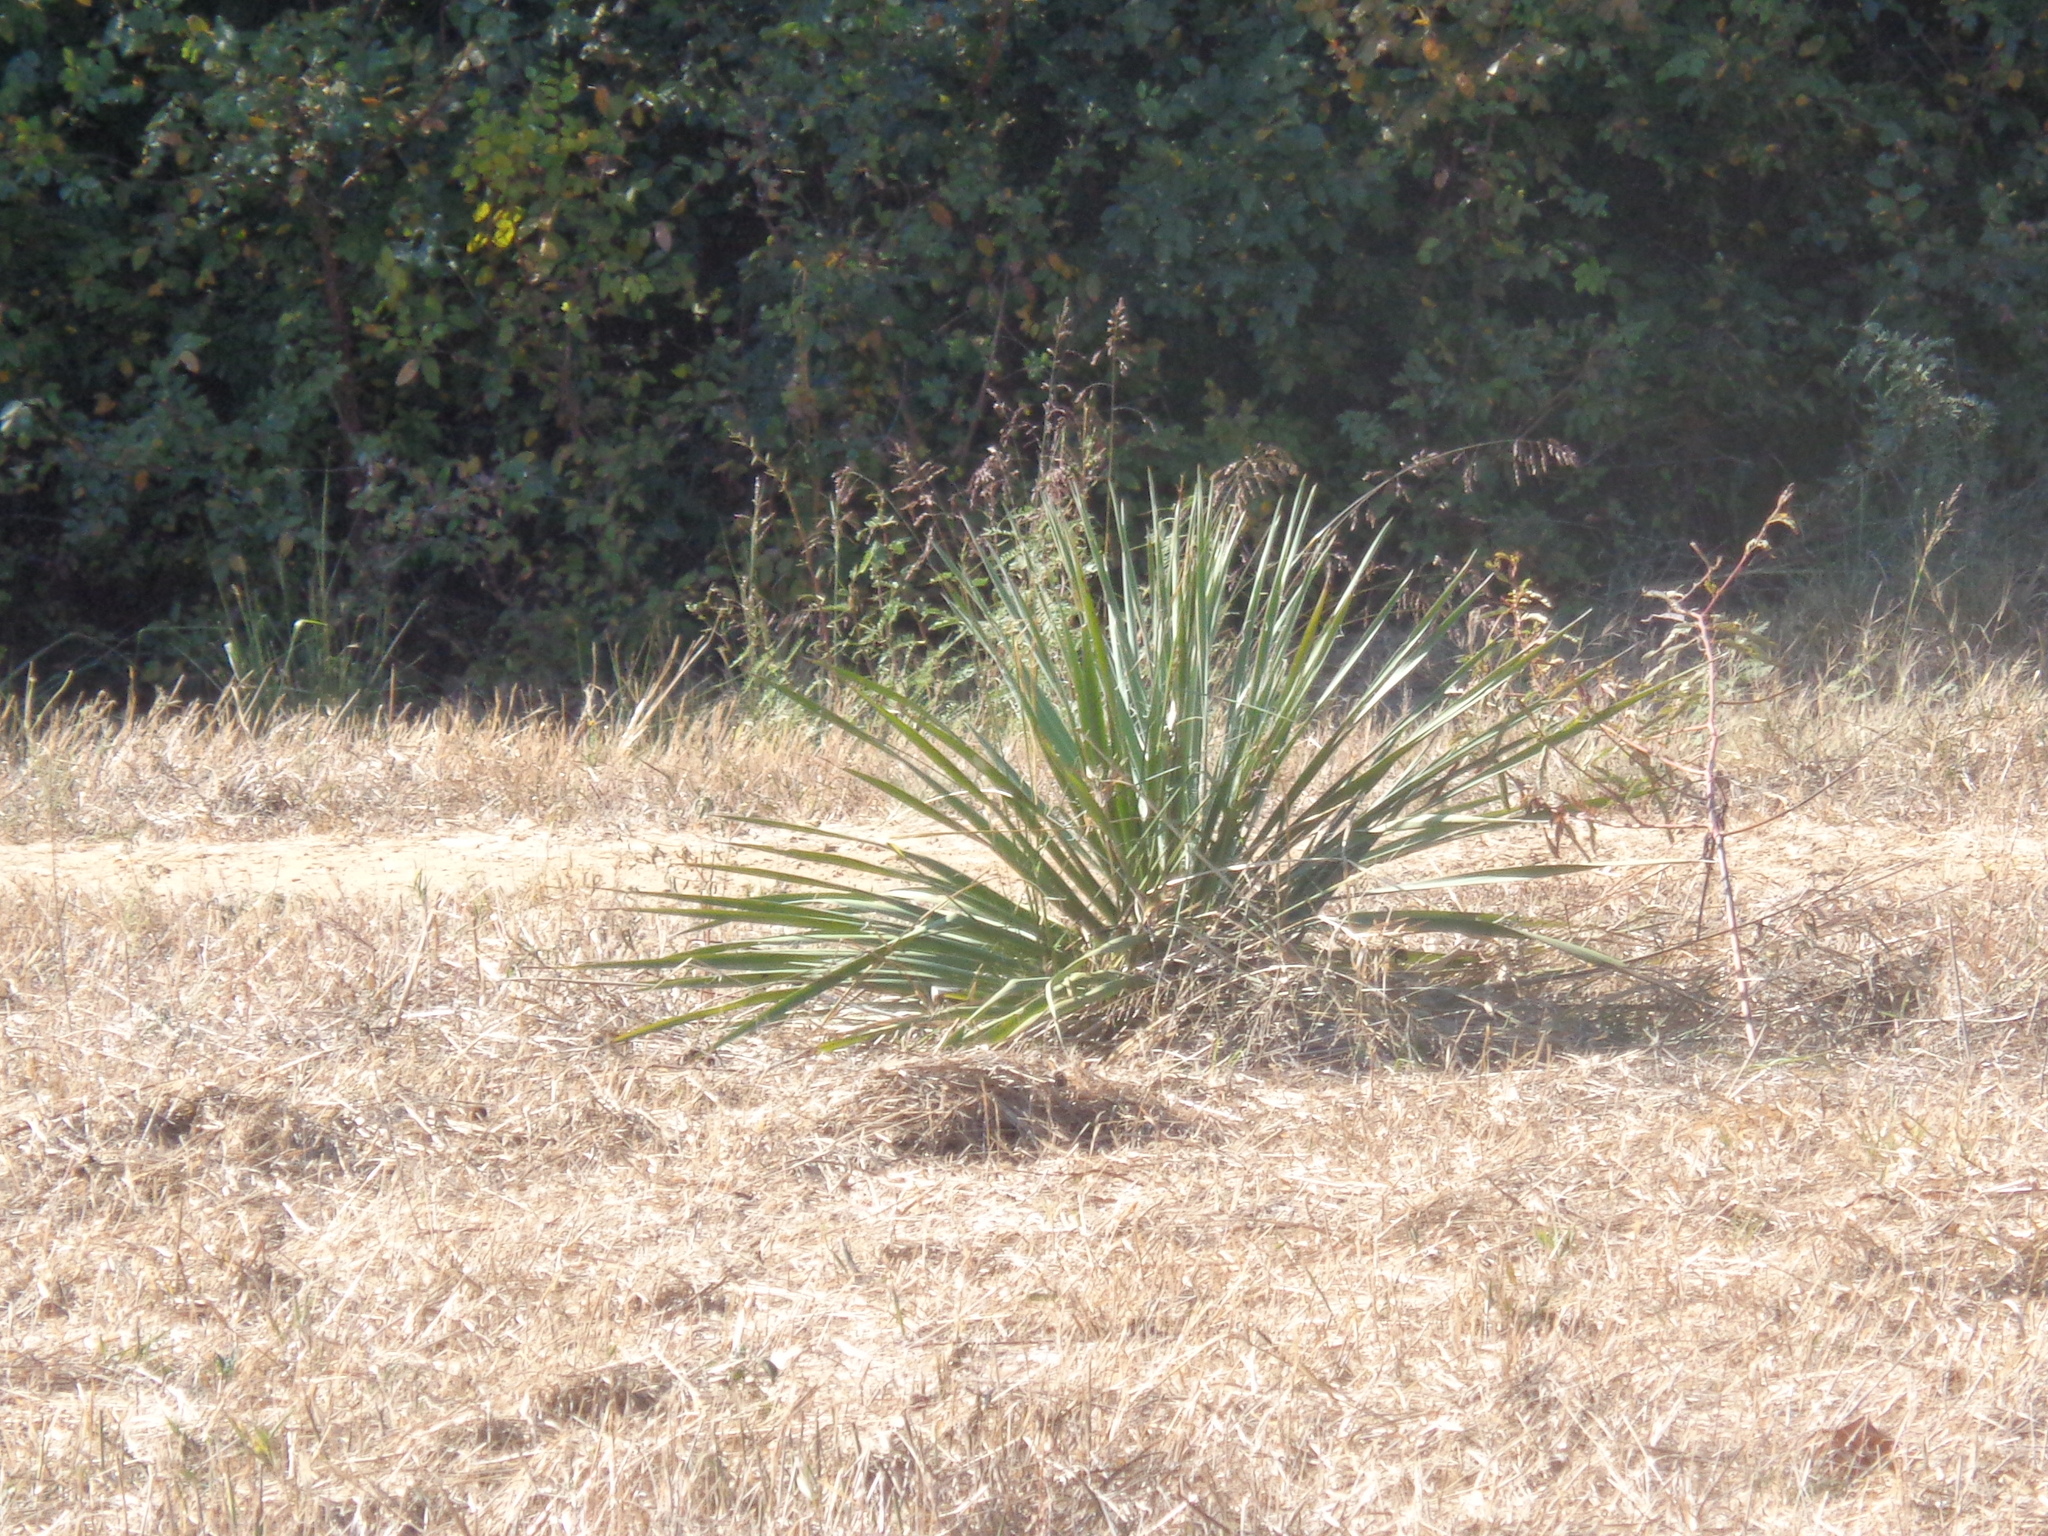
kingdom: Plantae
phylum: Tracheophyta
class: Liliopsida
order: Asparagales
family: Asparagaceae
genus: Yucca
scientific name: Yucca necopina
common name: Glen rose yucca
